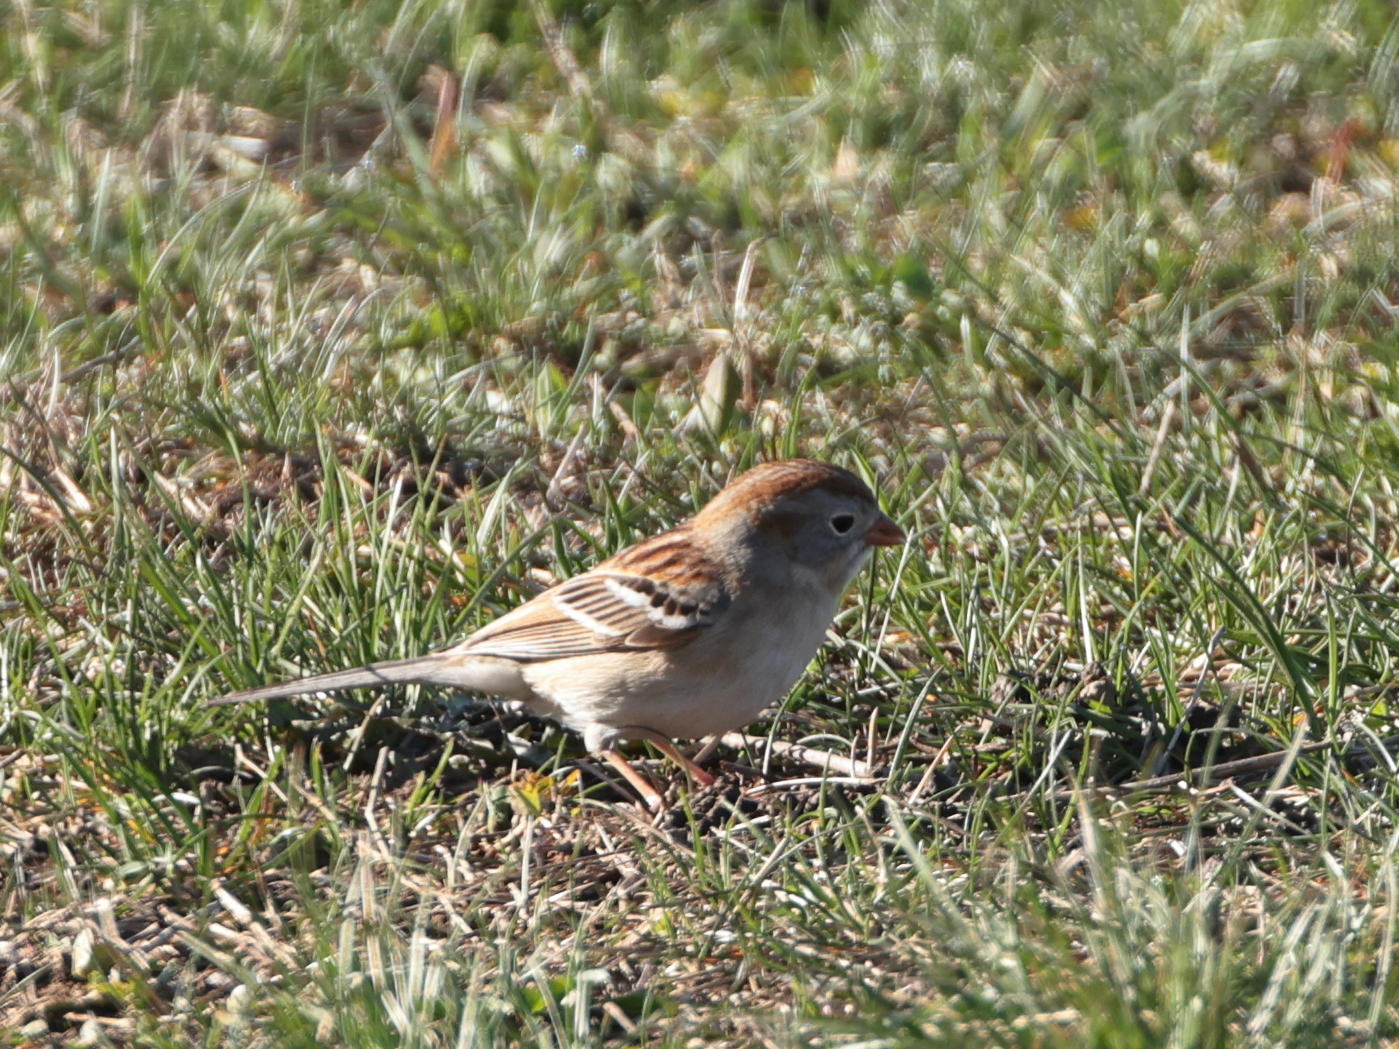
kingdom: Animalia
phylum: Chordata
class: Aves
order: Passeriformes
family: Passerellidae
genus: Spizella
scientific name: Spizella pusilla
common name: Field sparrow
